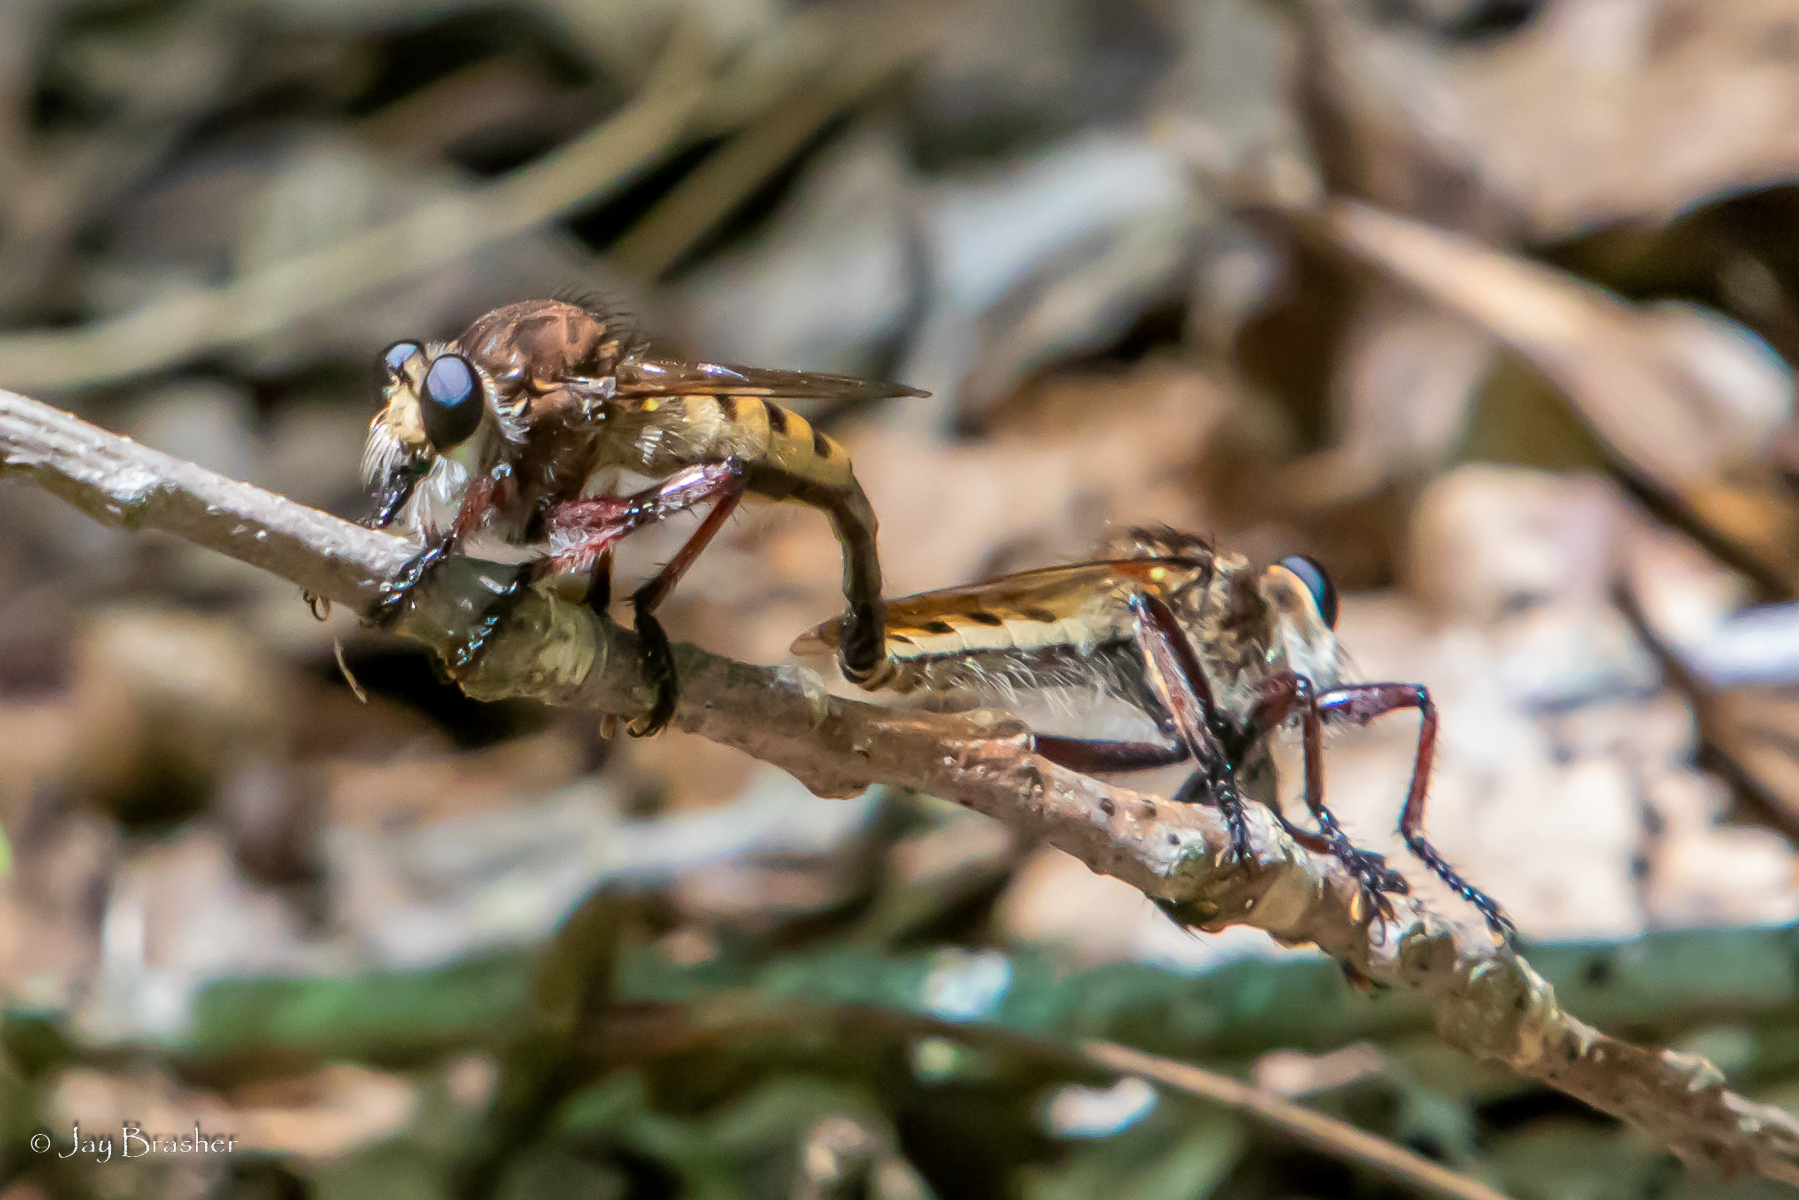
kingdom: Animalia
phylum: Arthropoda
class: Insecta
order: Diptera
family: Asilidae
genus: Promachus
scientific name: Promachus hinei
